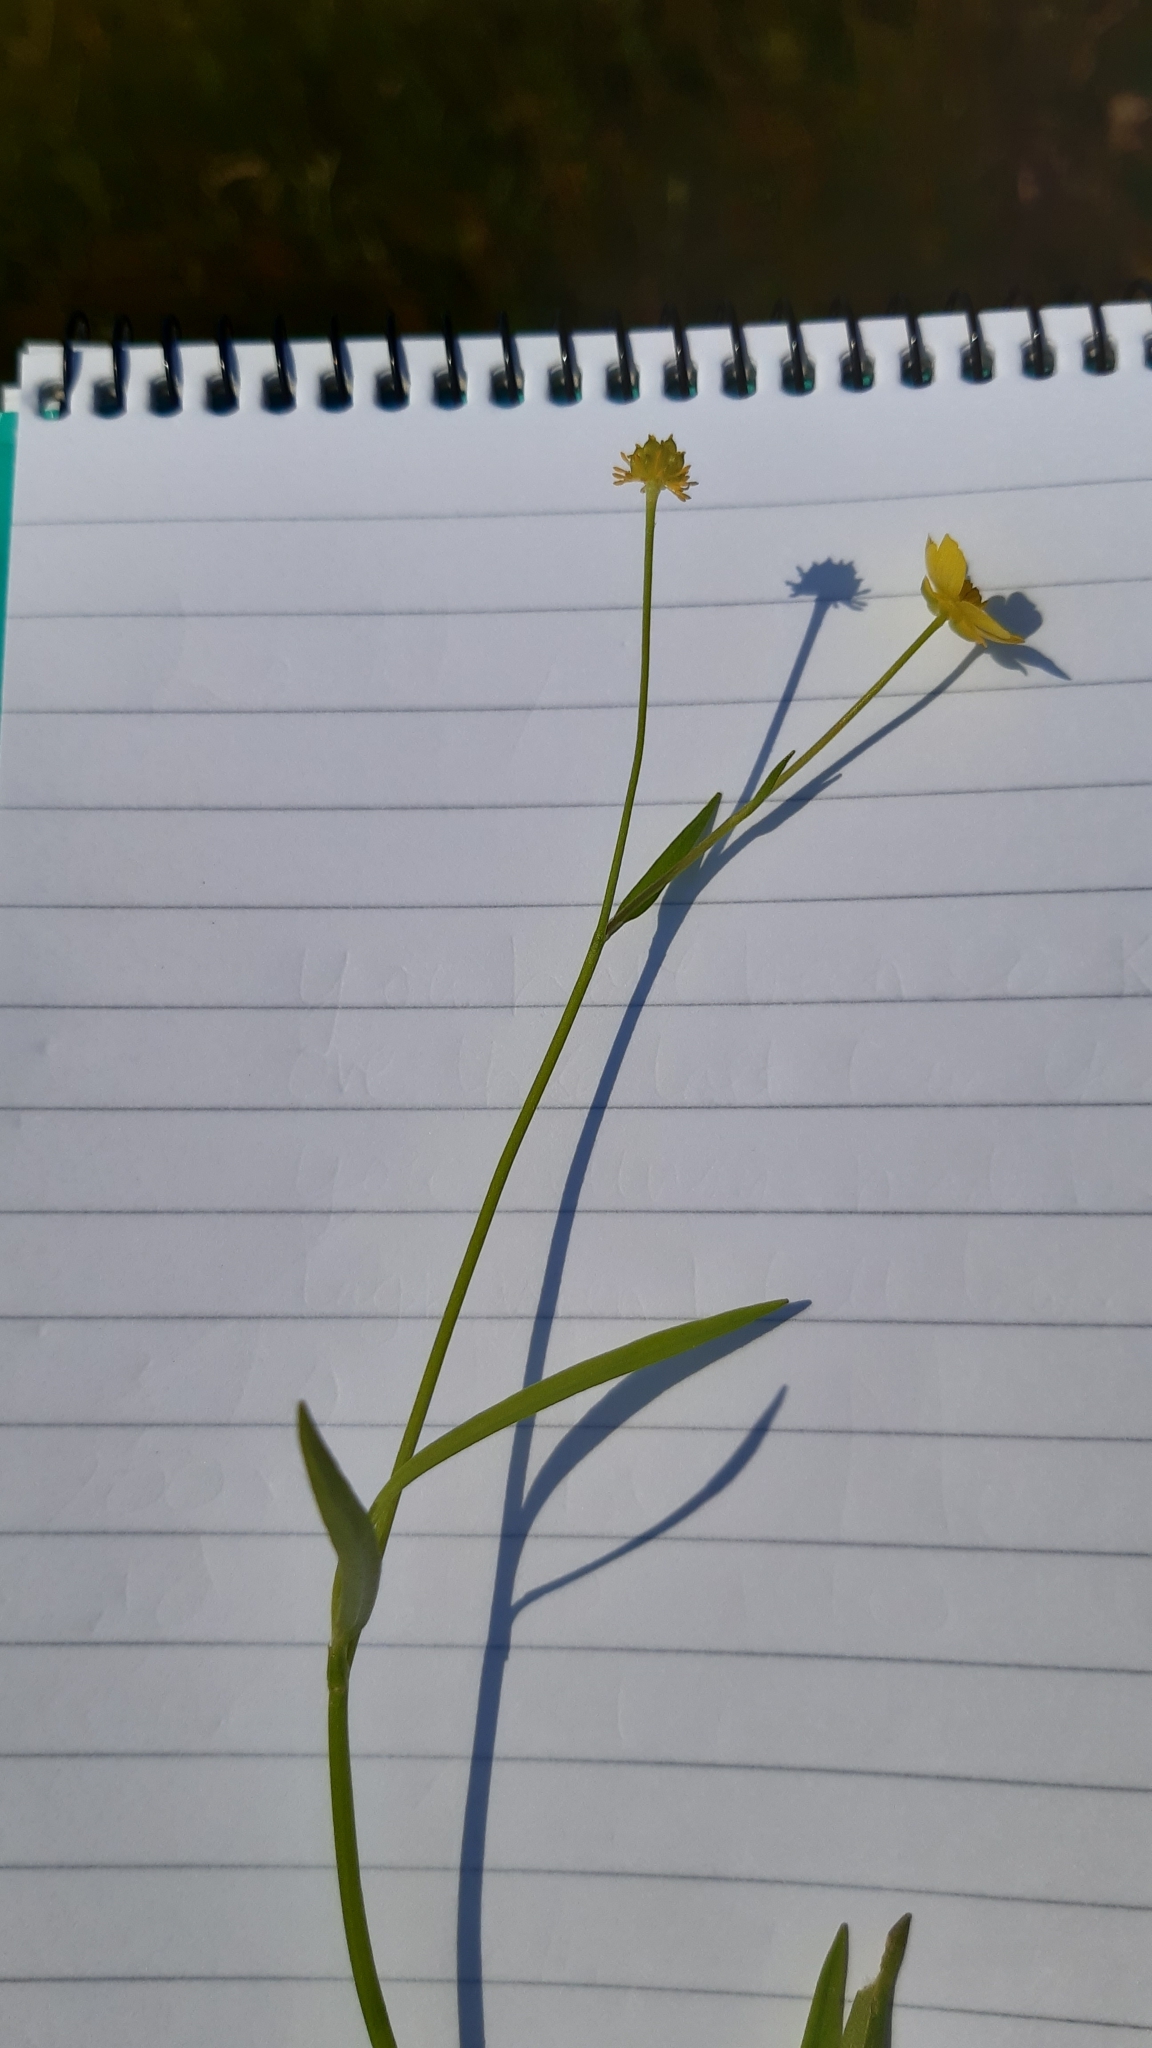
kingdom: Plantae
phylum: Tracheophyta
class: Magnoliopsida
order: Ranunculales
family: Ranunculaceae
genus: Ranunculus
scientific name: Ranunculus flammula
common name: Lesser spearwort
